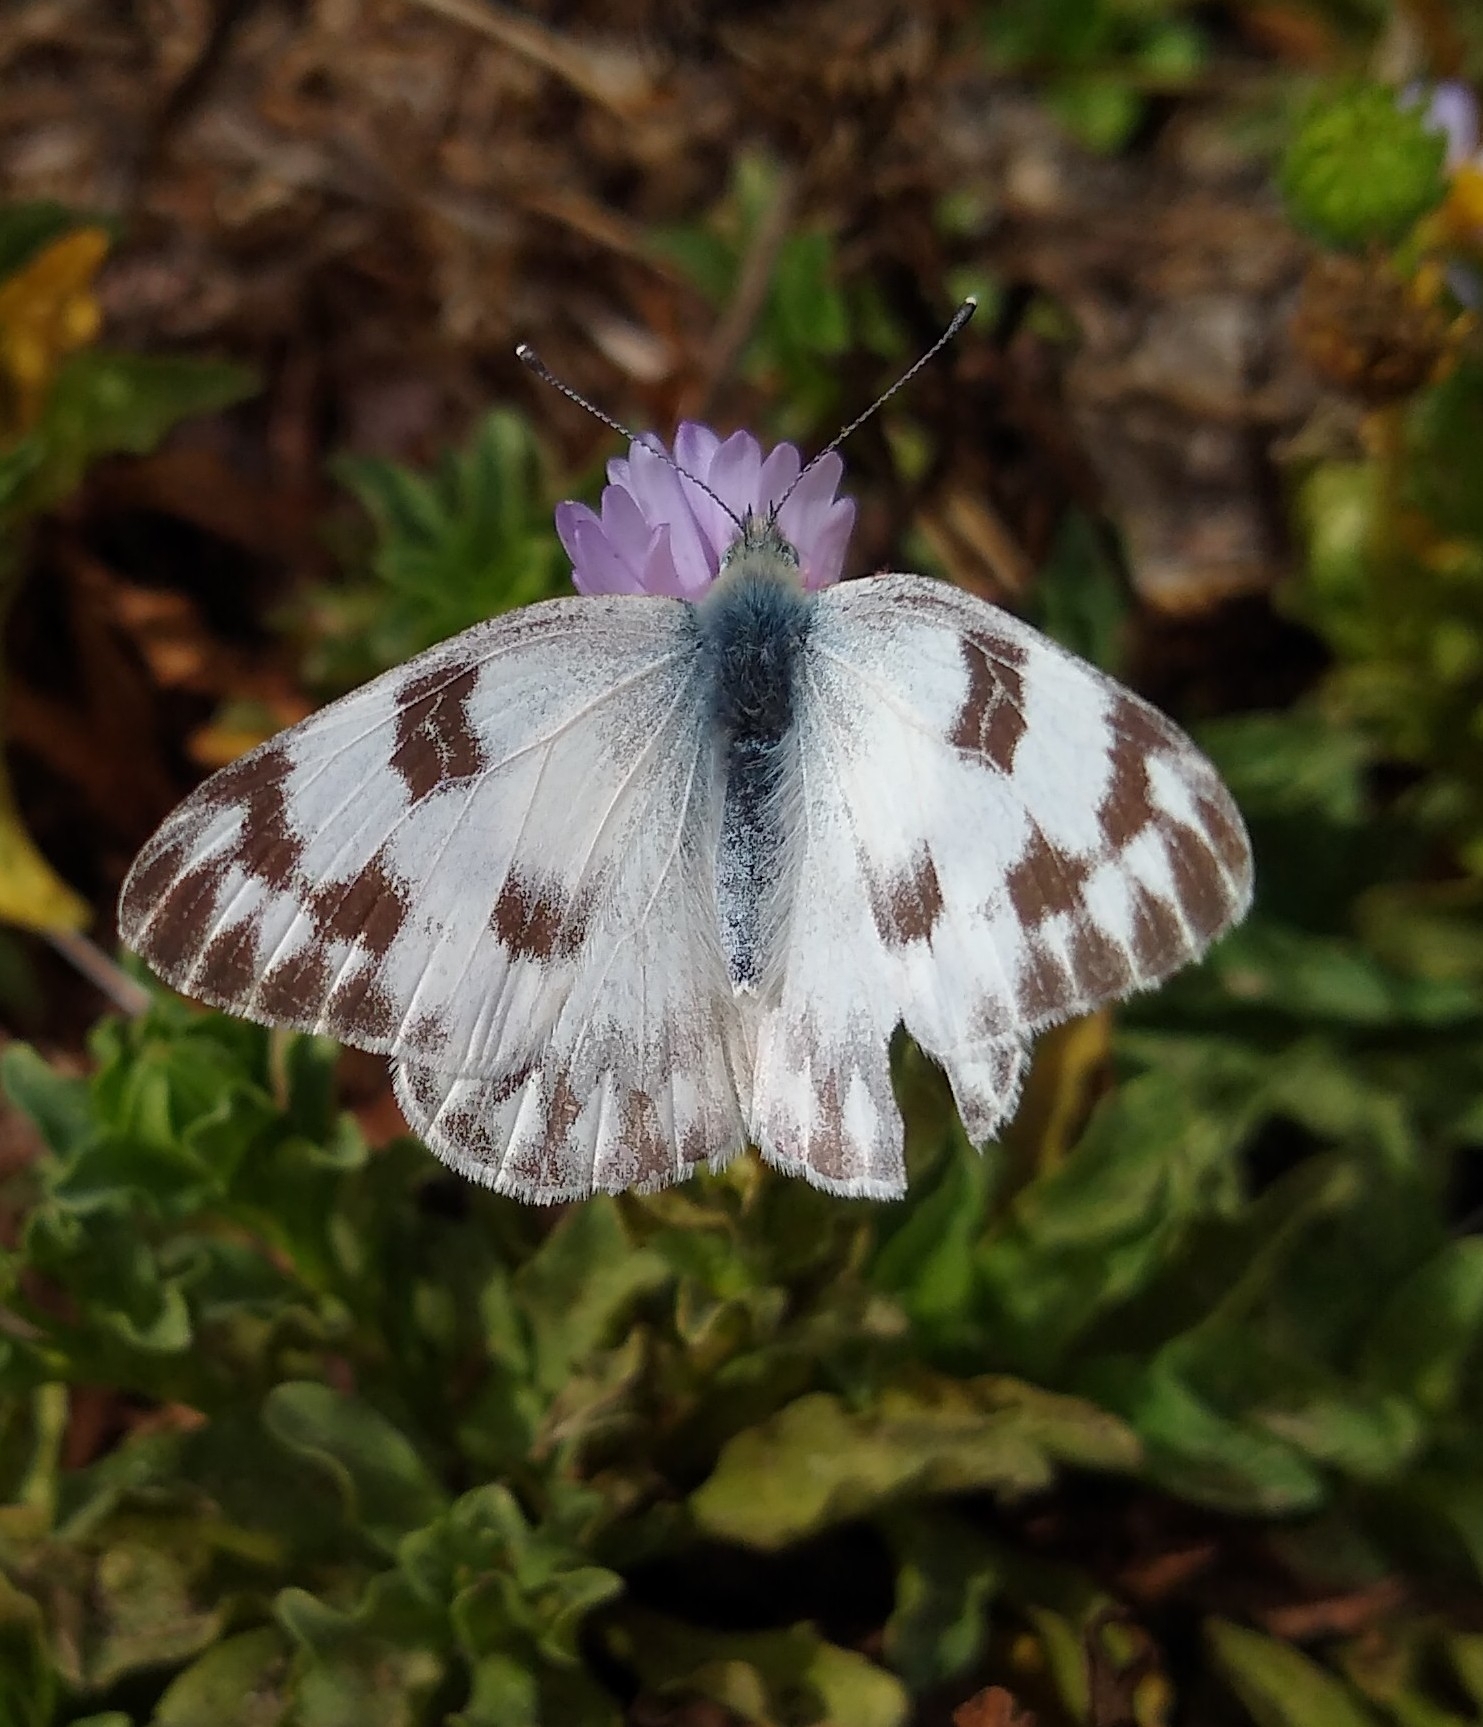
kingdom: Animalia
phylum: Arthropoda
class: Insecta
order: Lepidoptera
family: Pieridae
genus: Pontia
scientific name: Pontia protodice
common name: Checkered white
